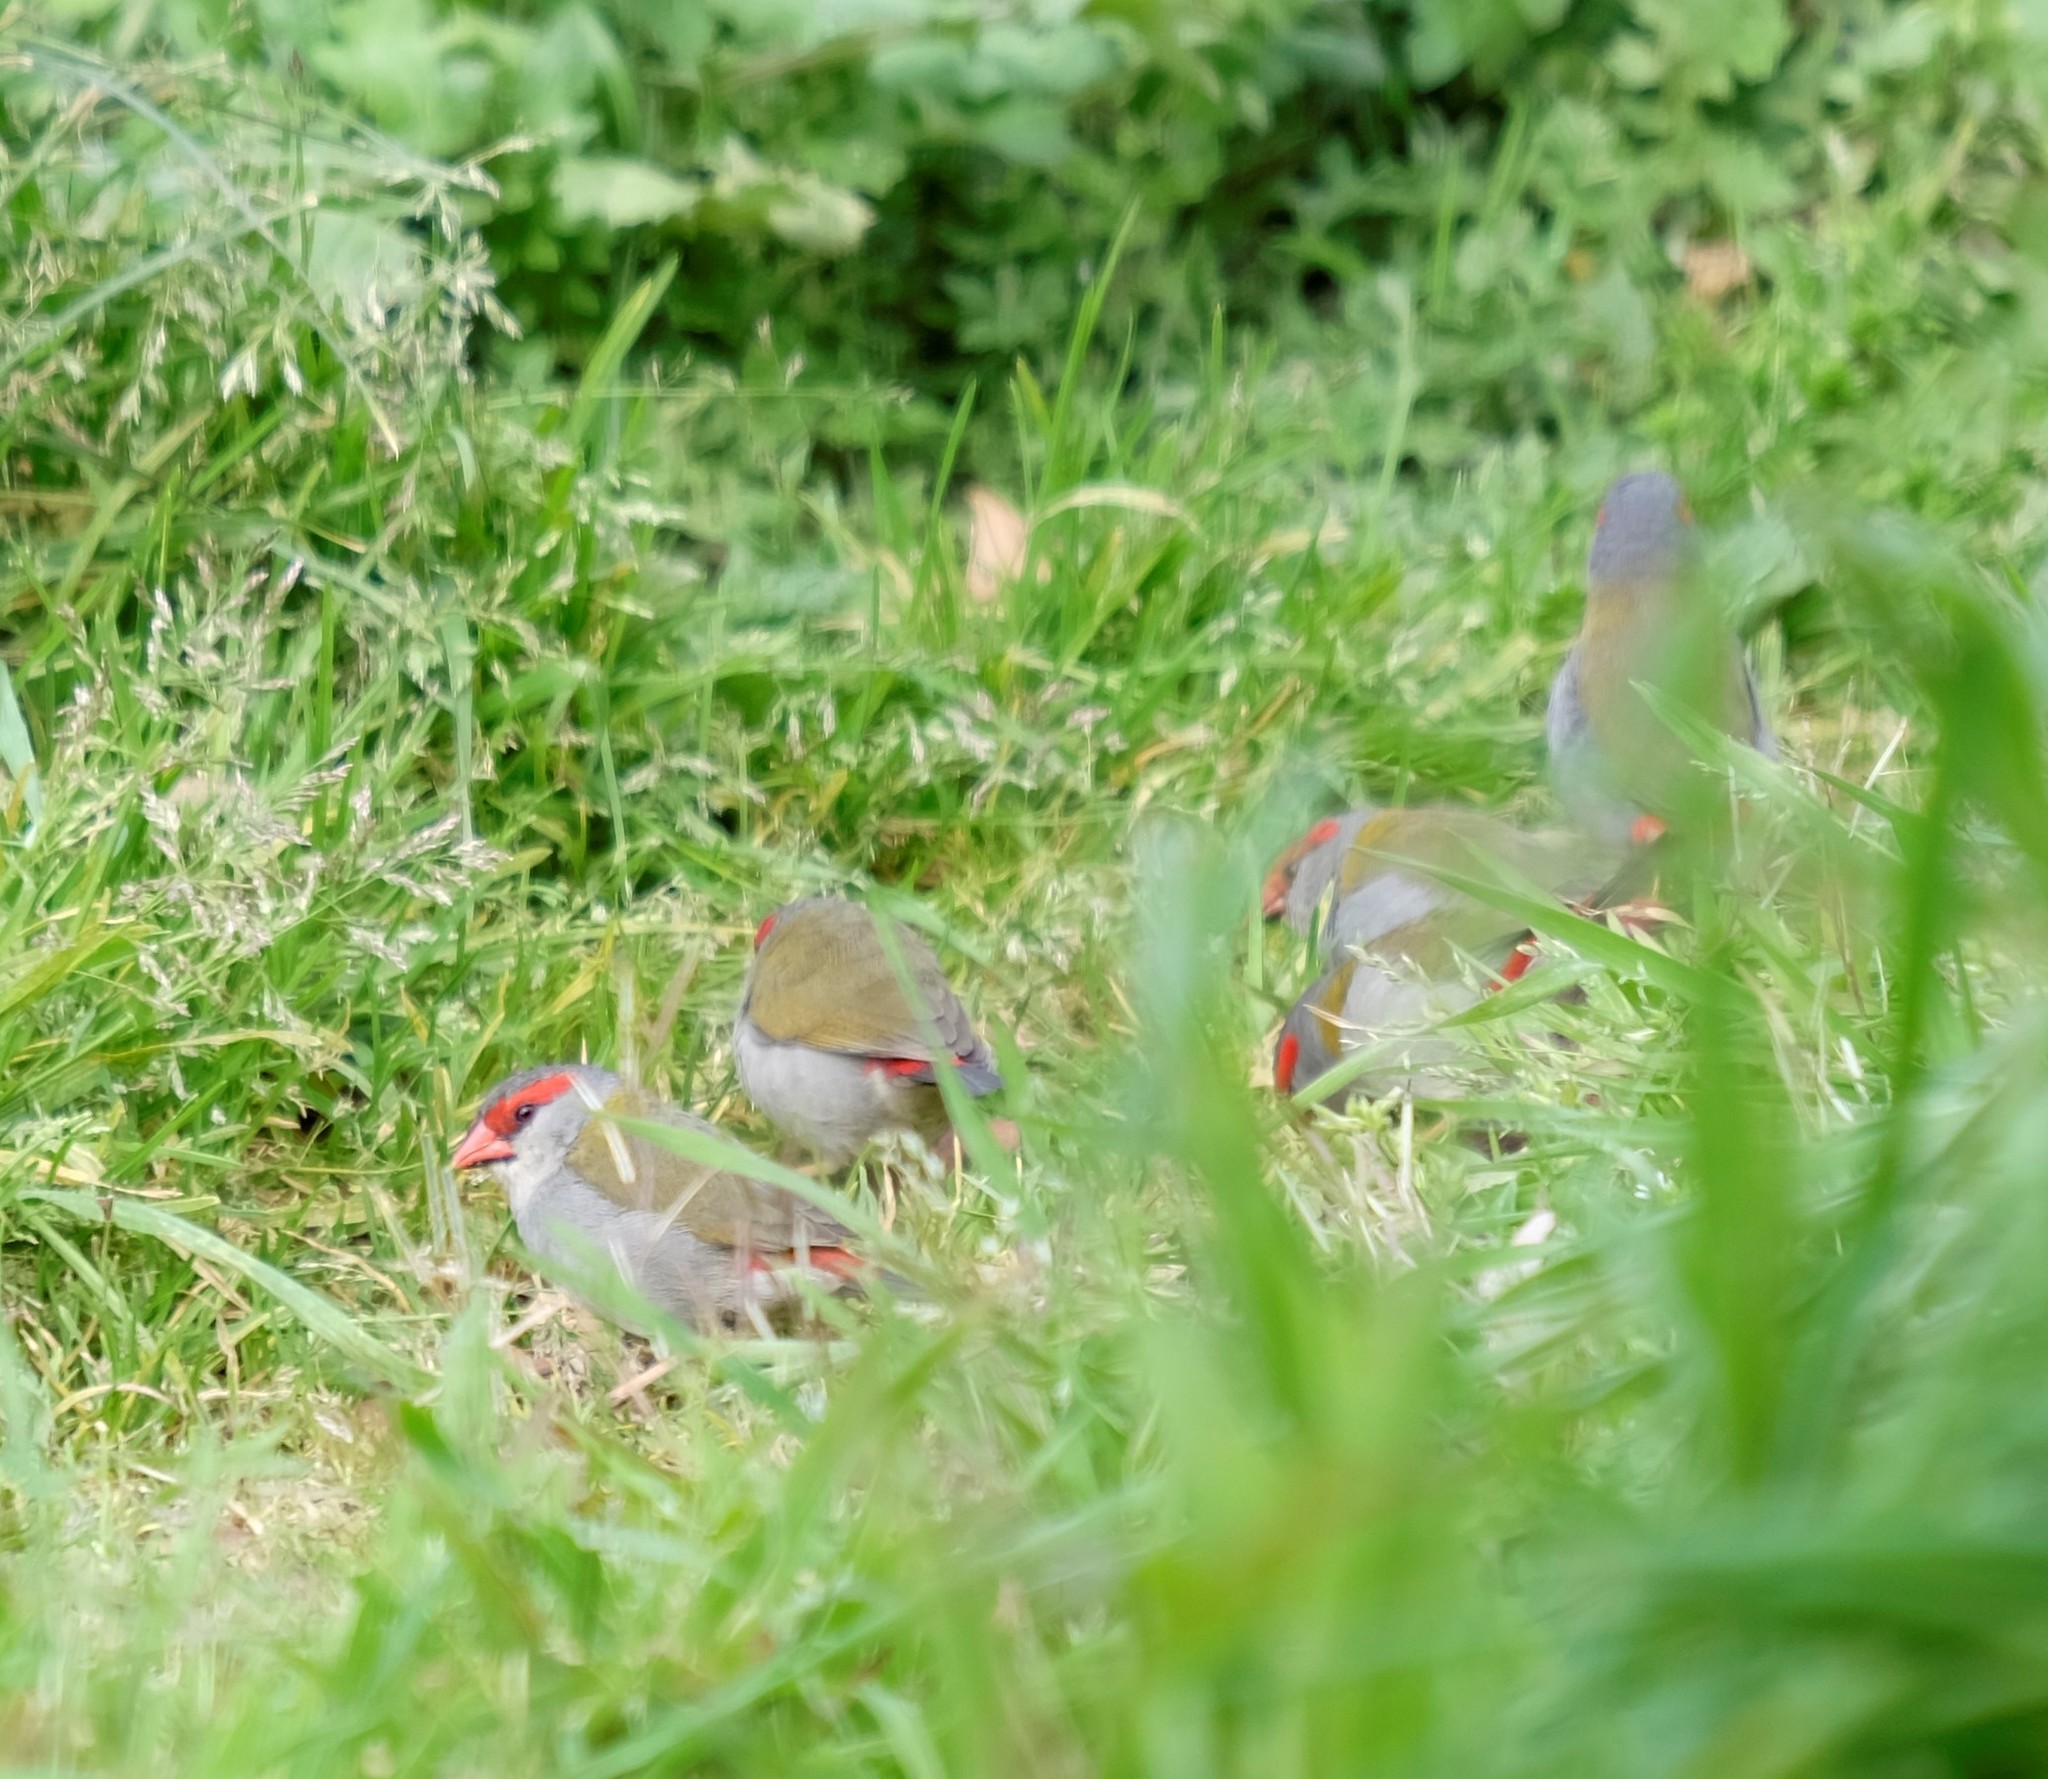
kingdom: Animalia
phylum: Chordata
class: Aves
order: Passeriformes
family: Estrildidae
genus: Neochmia
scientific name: Neochmia temporalis
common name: Red-browed finch
